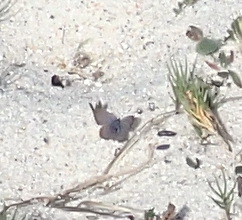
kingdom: Animalia
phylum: Arthropoda
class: Insecta
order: Lepidoptera
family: Lycaenidae
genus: Zizeeria
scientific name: Zizeeria knysna
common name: African grass blue
